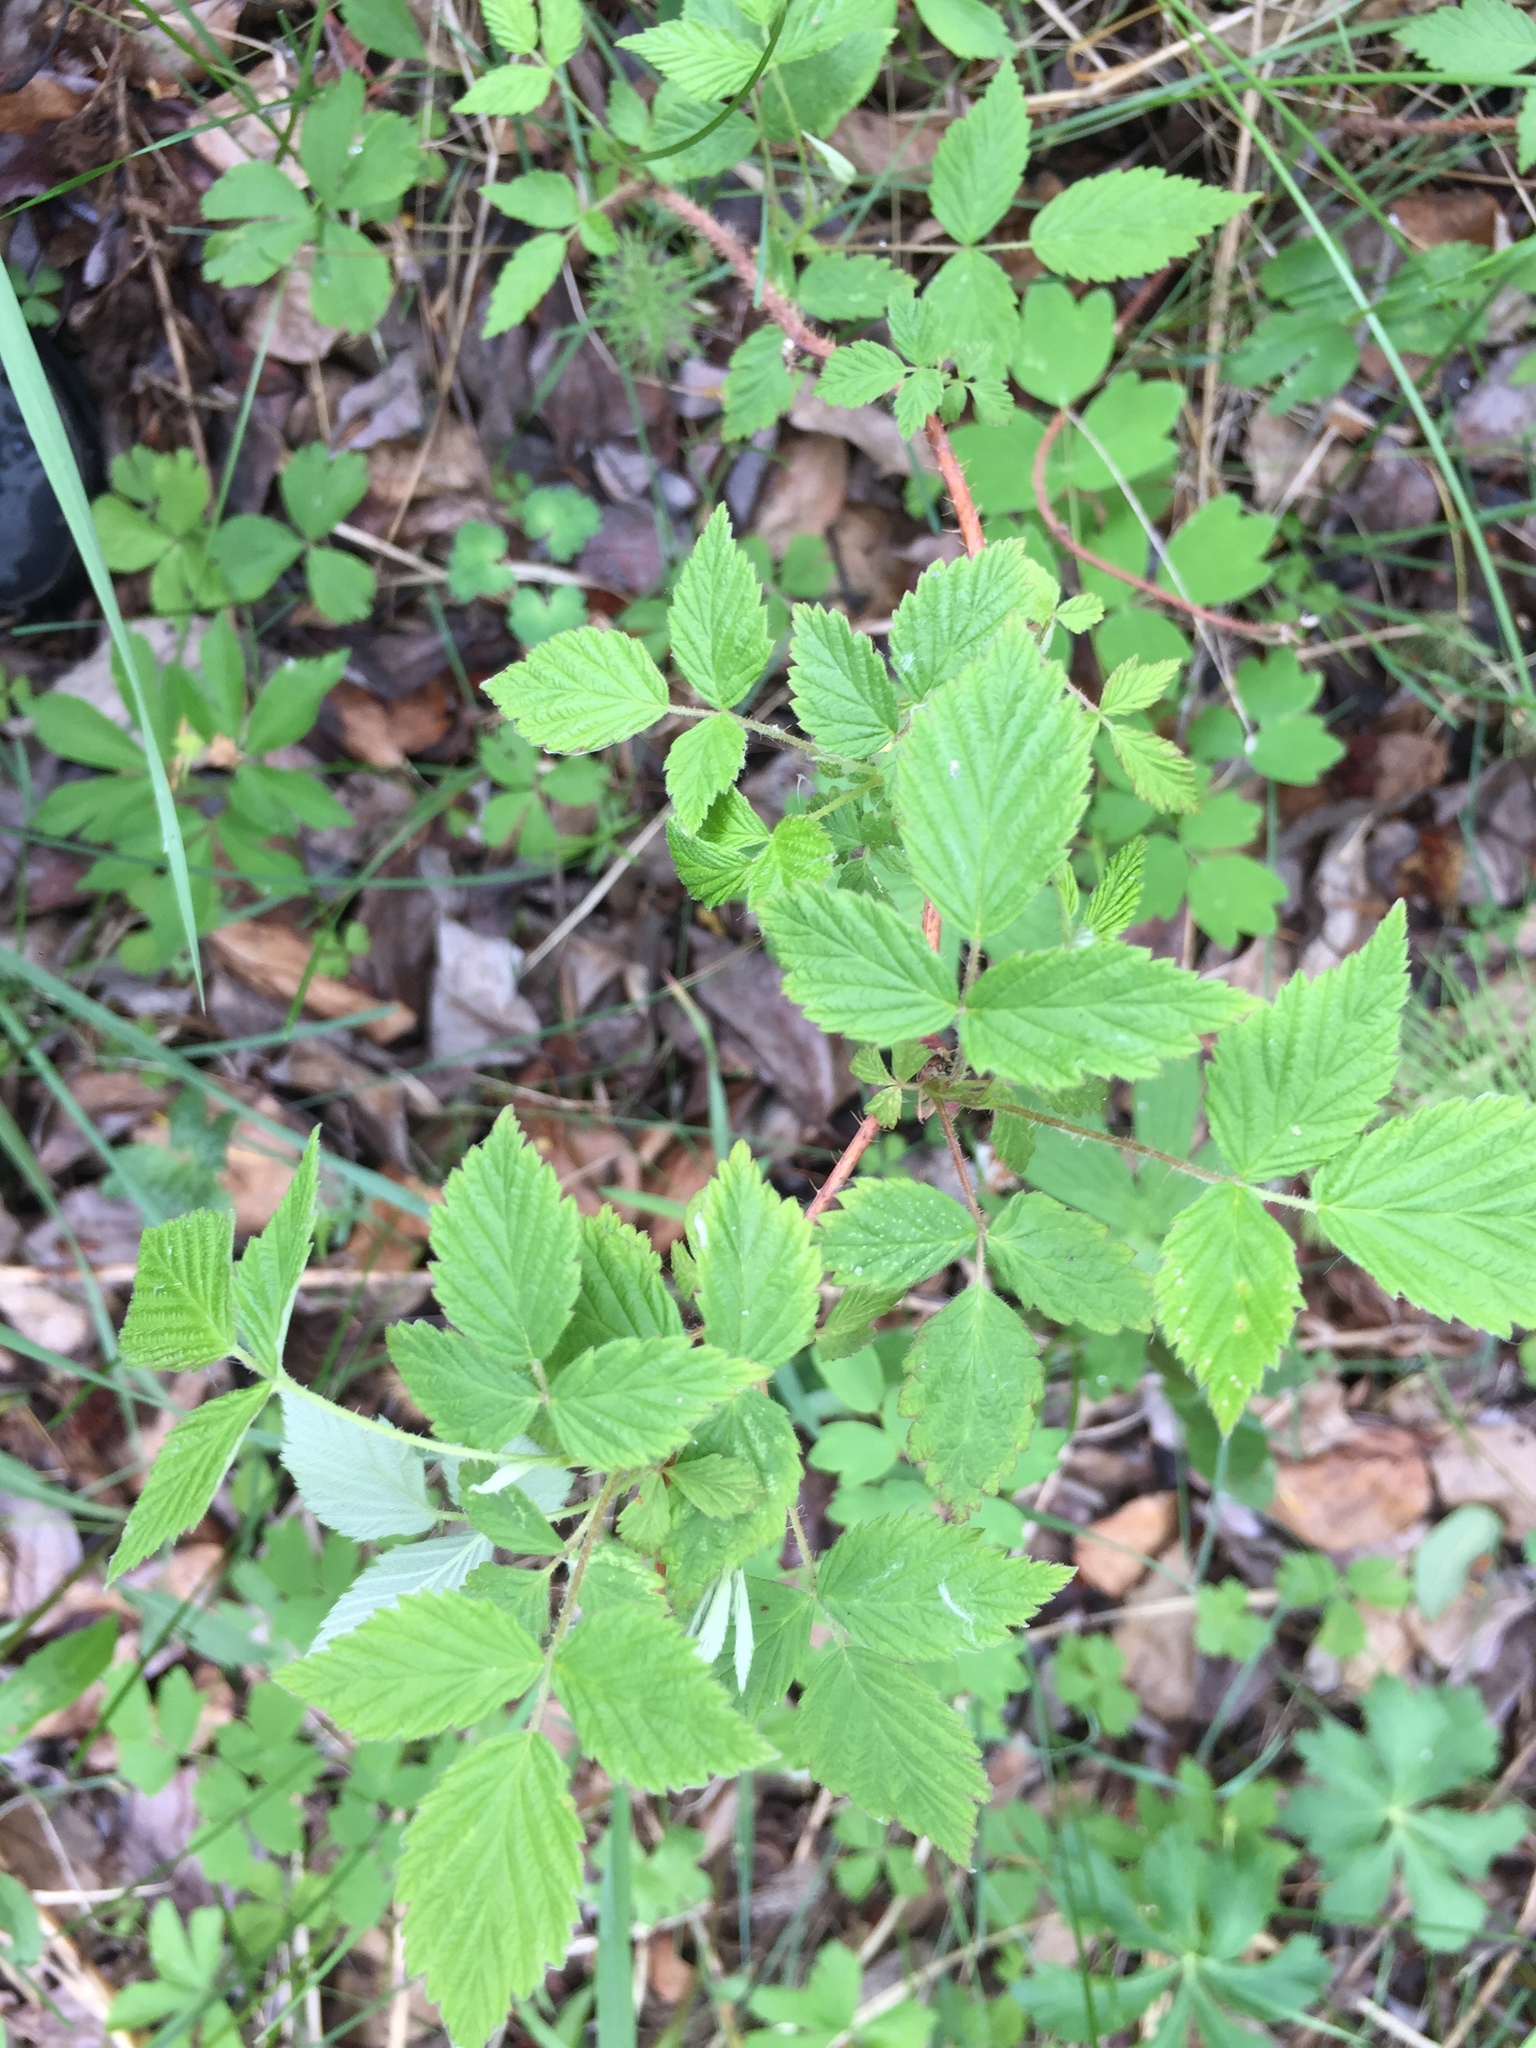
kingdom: Plantae
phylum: Tracheophyta
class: Magnoliopsida
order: Rosales
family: Rosaceae
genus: Rubus
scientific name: Rubus idaeus
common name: Raspberry
